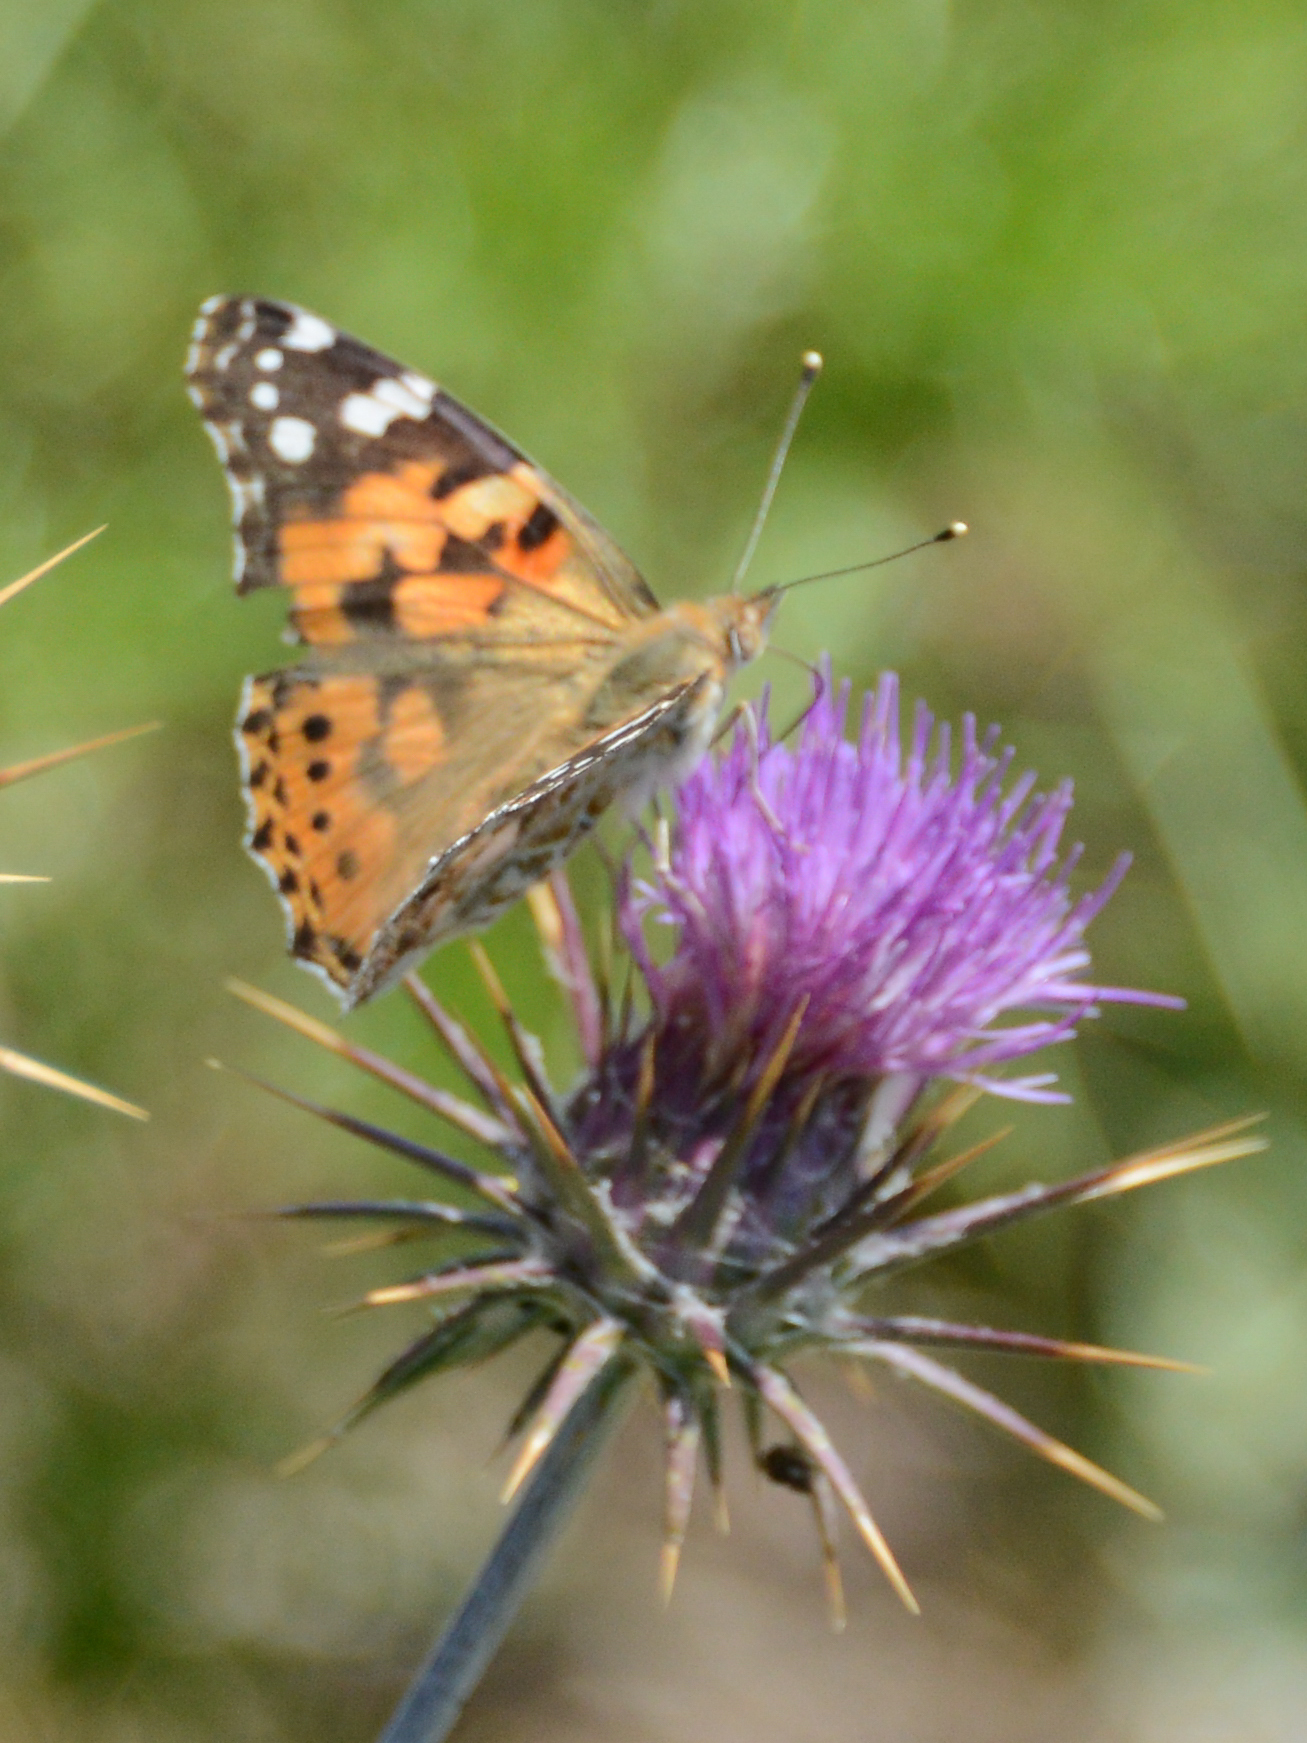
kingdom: Animalia
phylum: Arthropoda
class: Insecta
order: Lepidoptera
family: Nymphalidae
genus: Vanessa
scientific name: Vanessa cardui
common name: Painted lady
